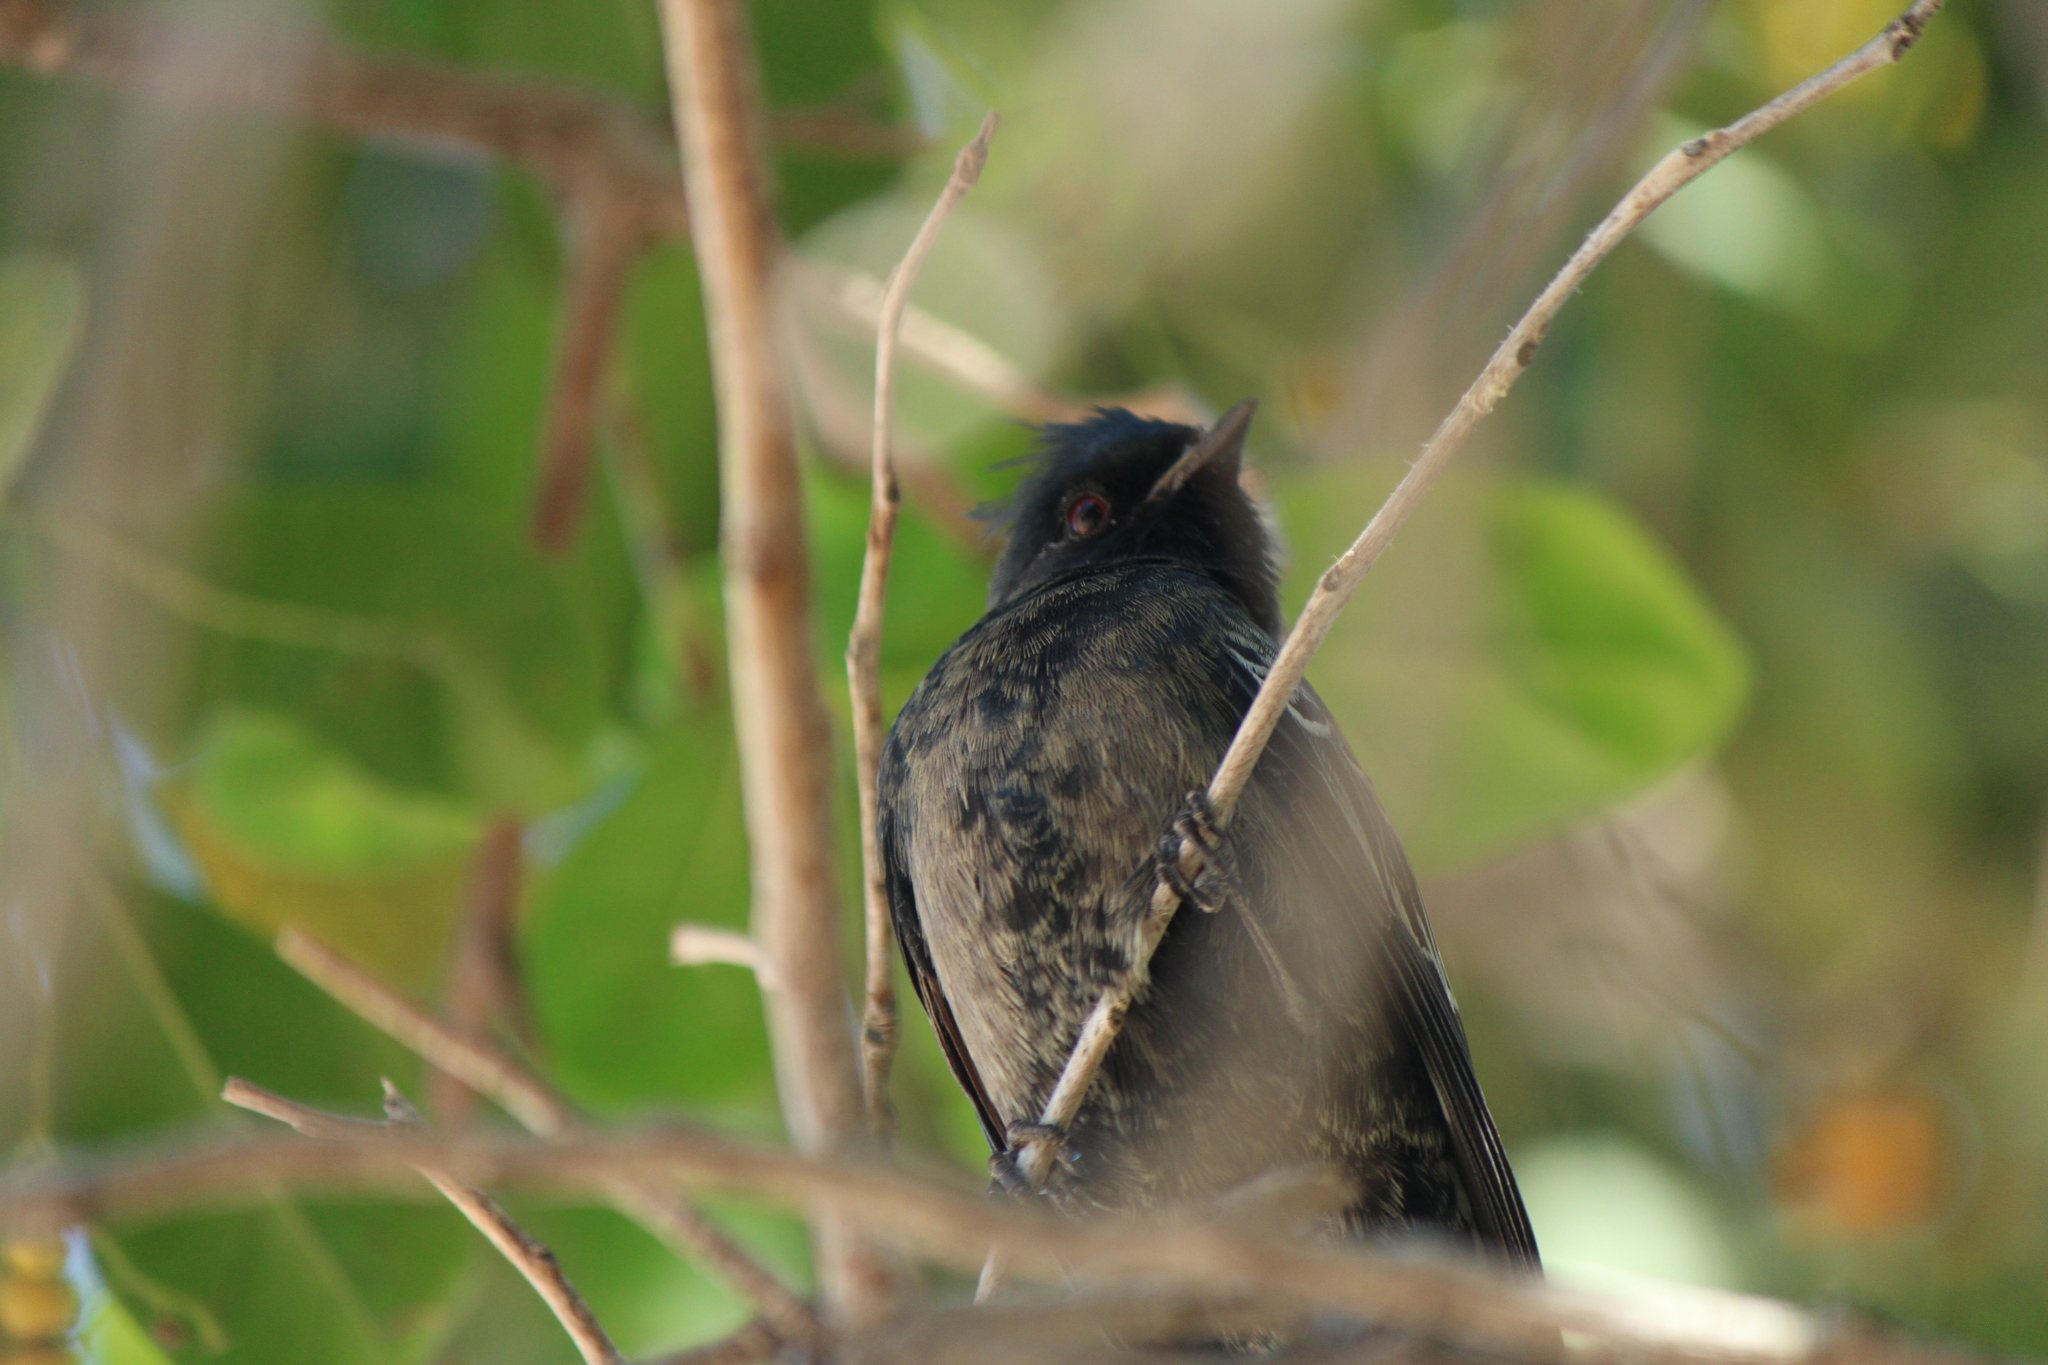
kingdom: Animalia
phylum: Chordata
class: Aves
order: Passeriformes
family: Ptilogonatidae
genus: Phainopepla
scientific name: Phainopepla nitens
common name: Phainopepla
